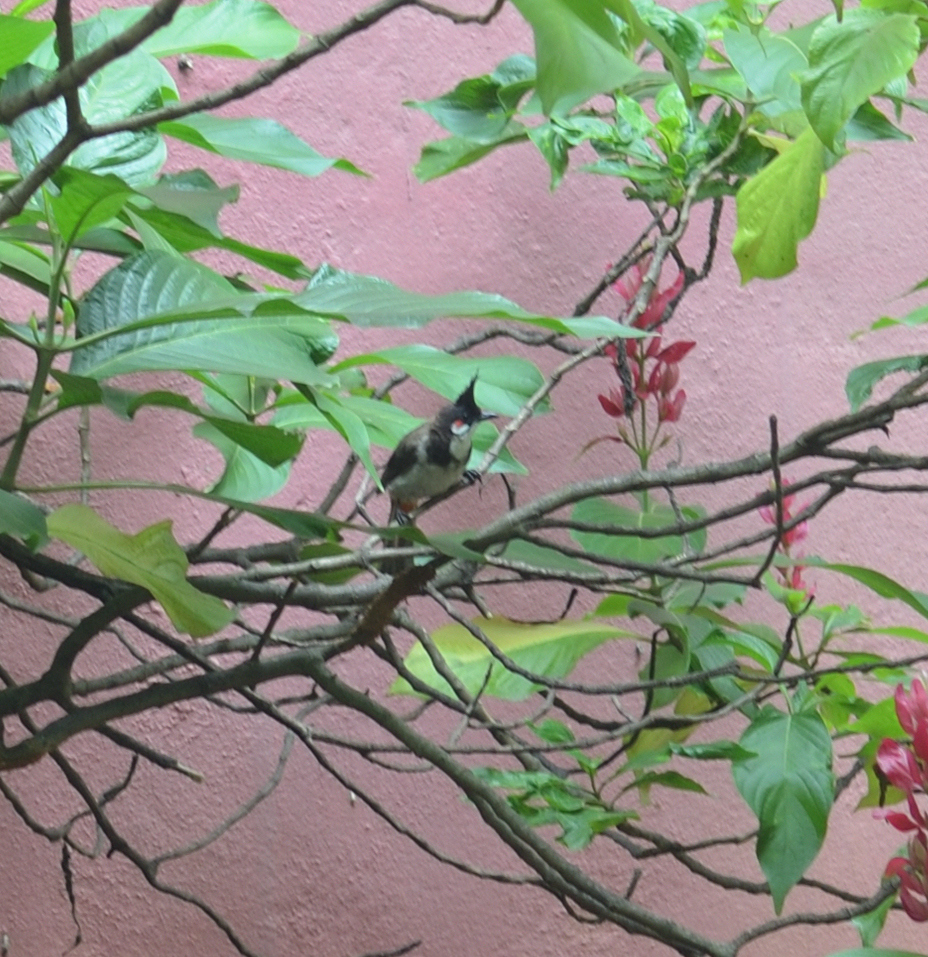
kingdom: Animalia
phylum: Chordata
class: Aves
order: Passeriformes
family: Pycnonotidae
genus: Pycnonotus
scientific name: Pycnonotus jocosus
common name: Red-whiskered bulbul
